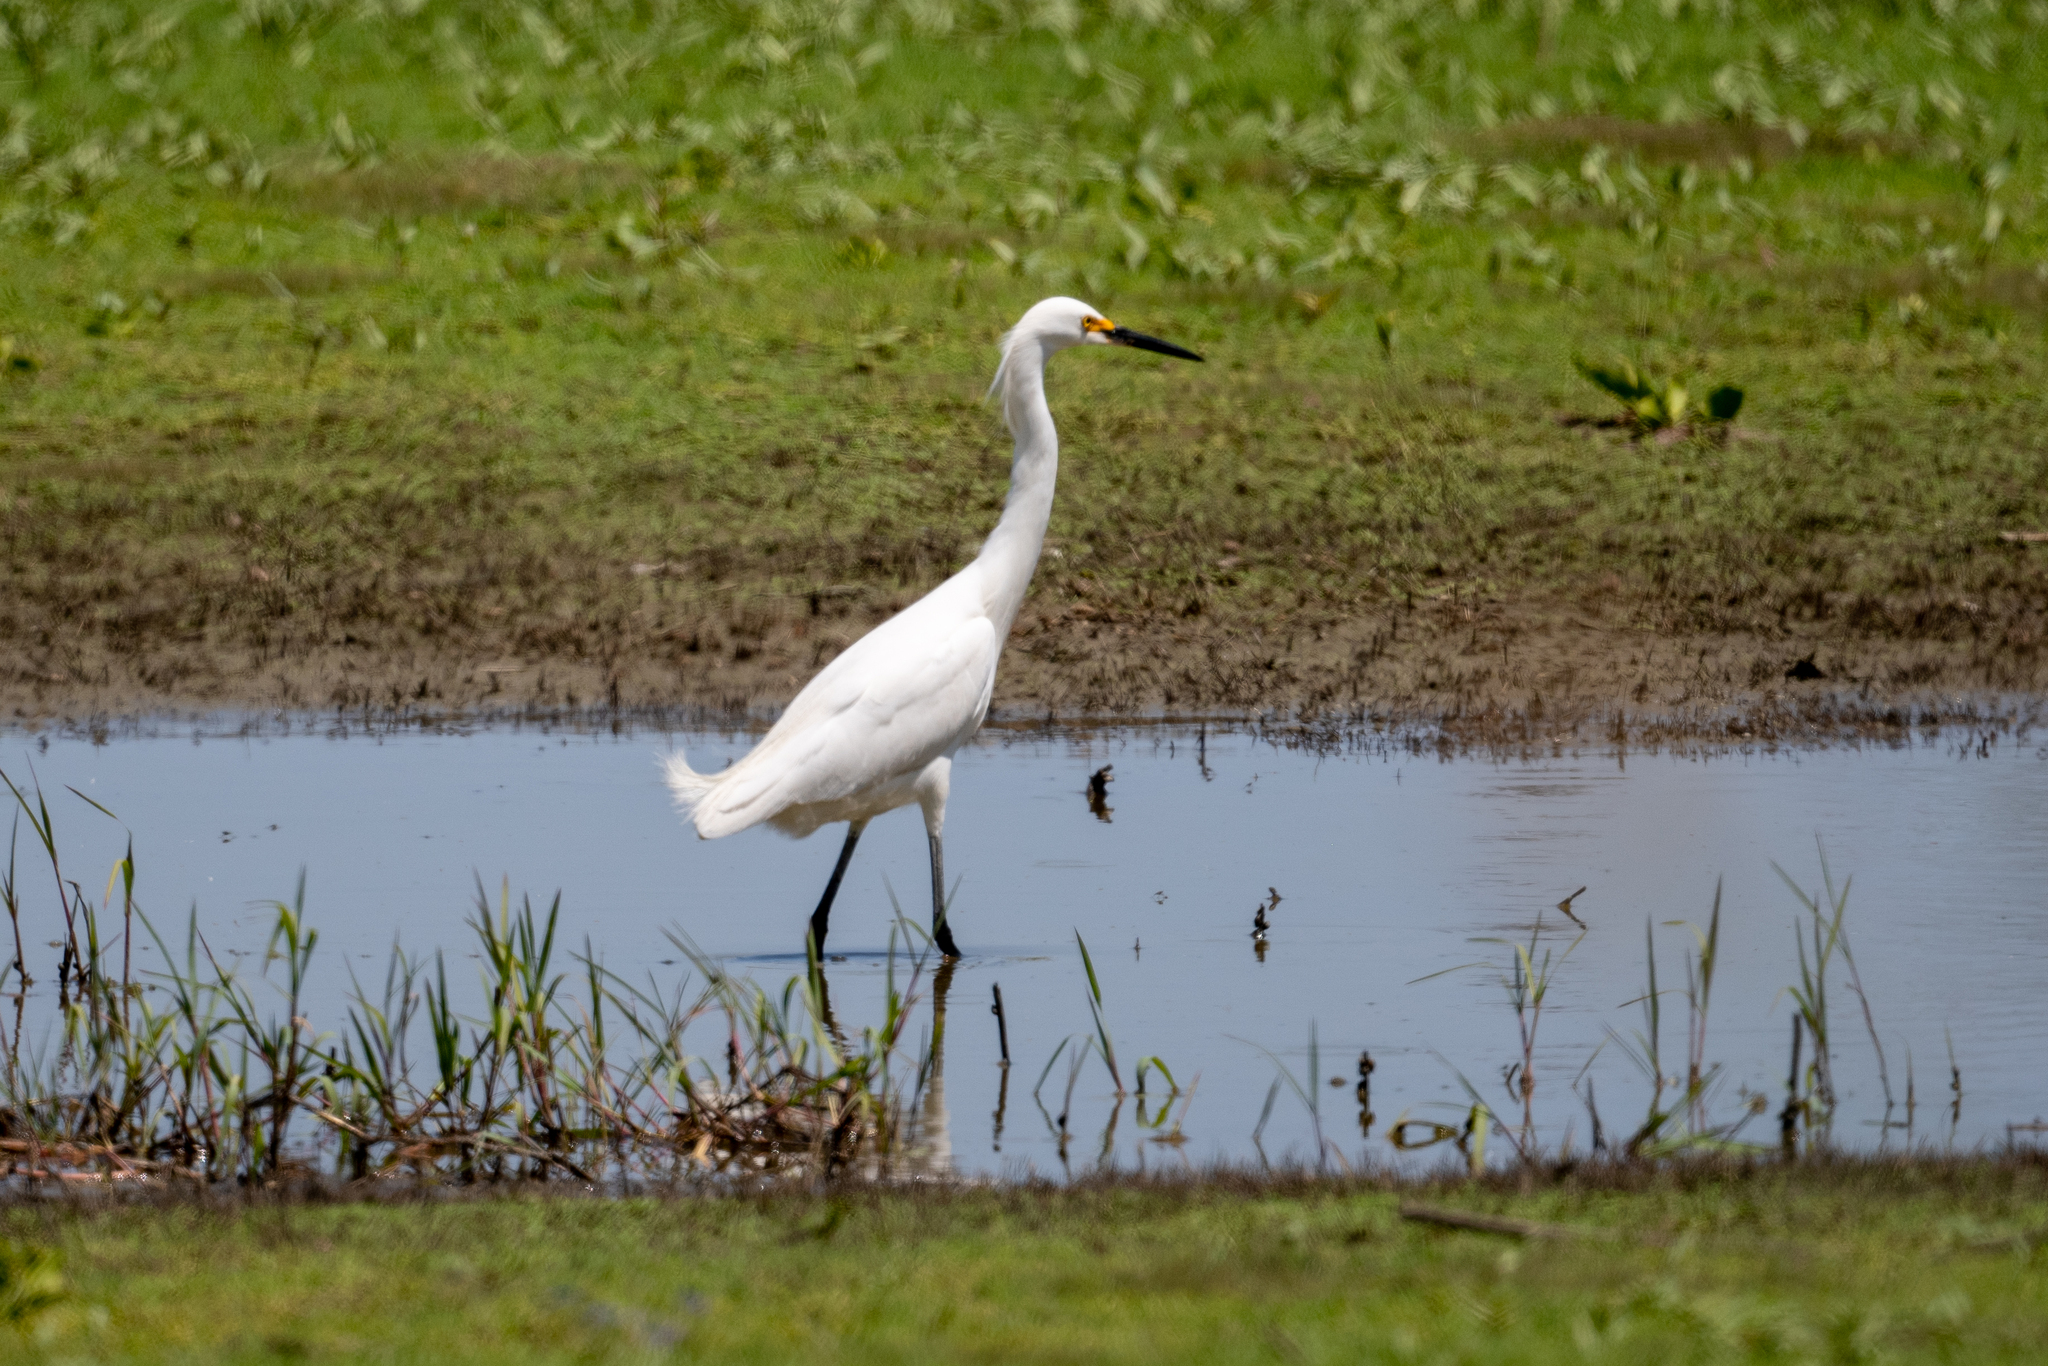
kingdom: Animalia
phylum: Chordata
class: Aves
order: Pelecaniformes
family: Ardeidae
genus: Egretta
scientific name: Egretta thula
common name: Snowy egret
